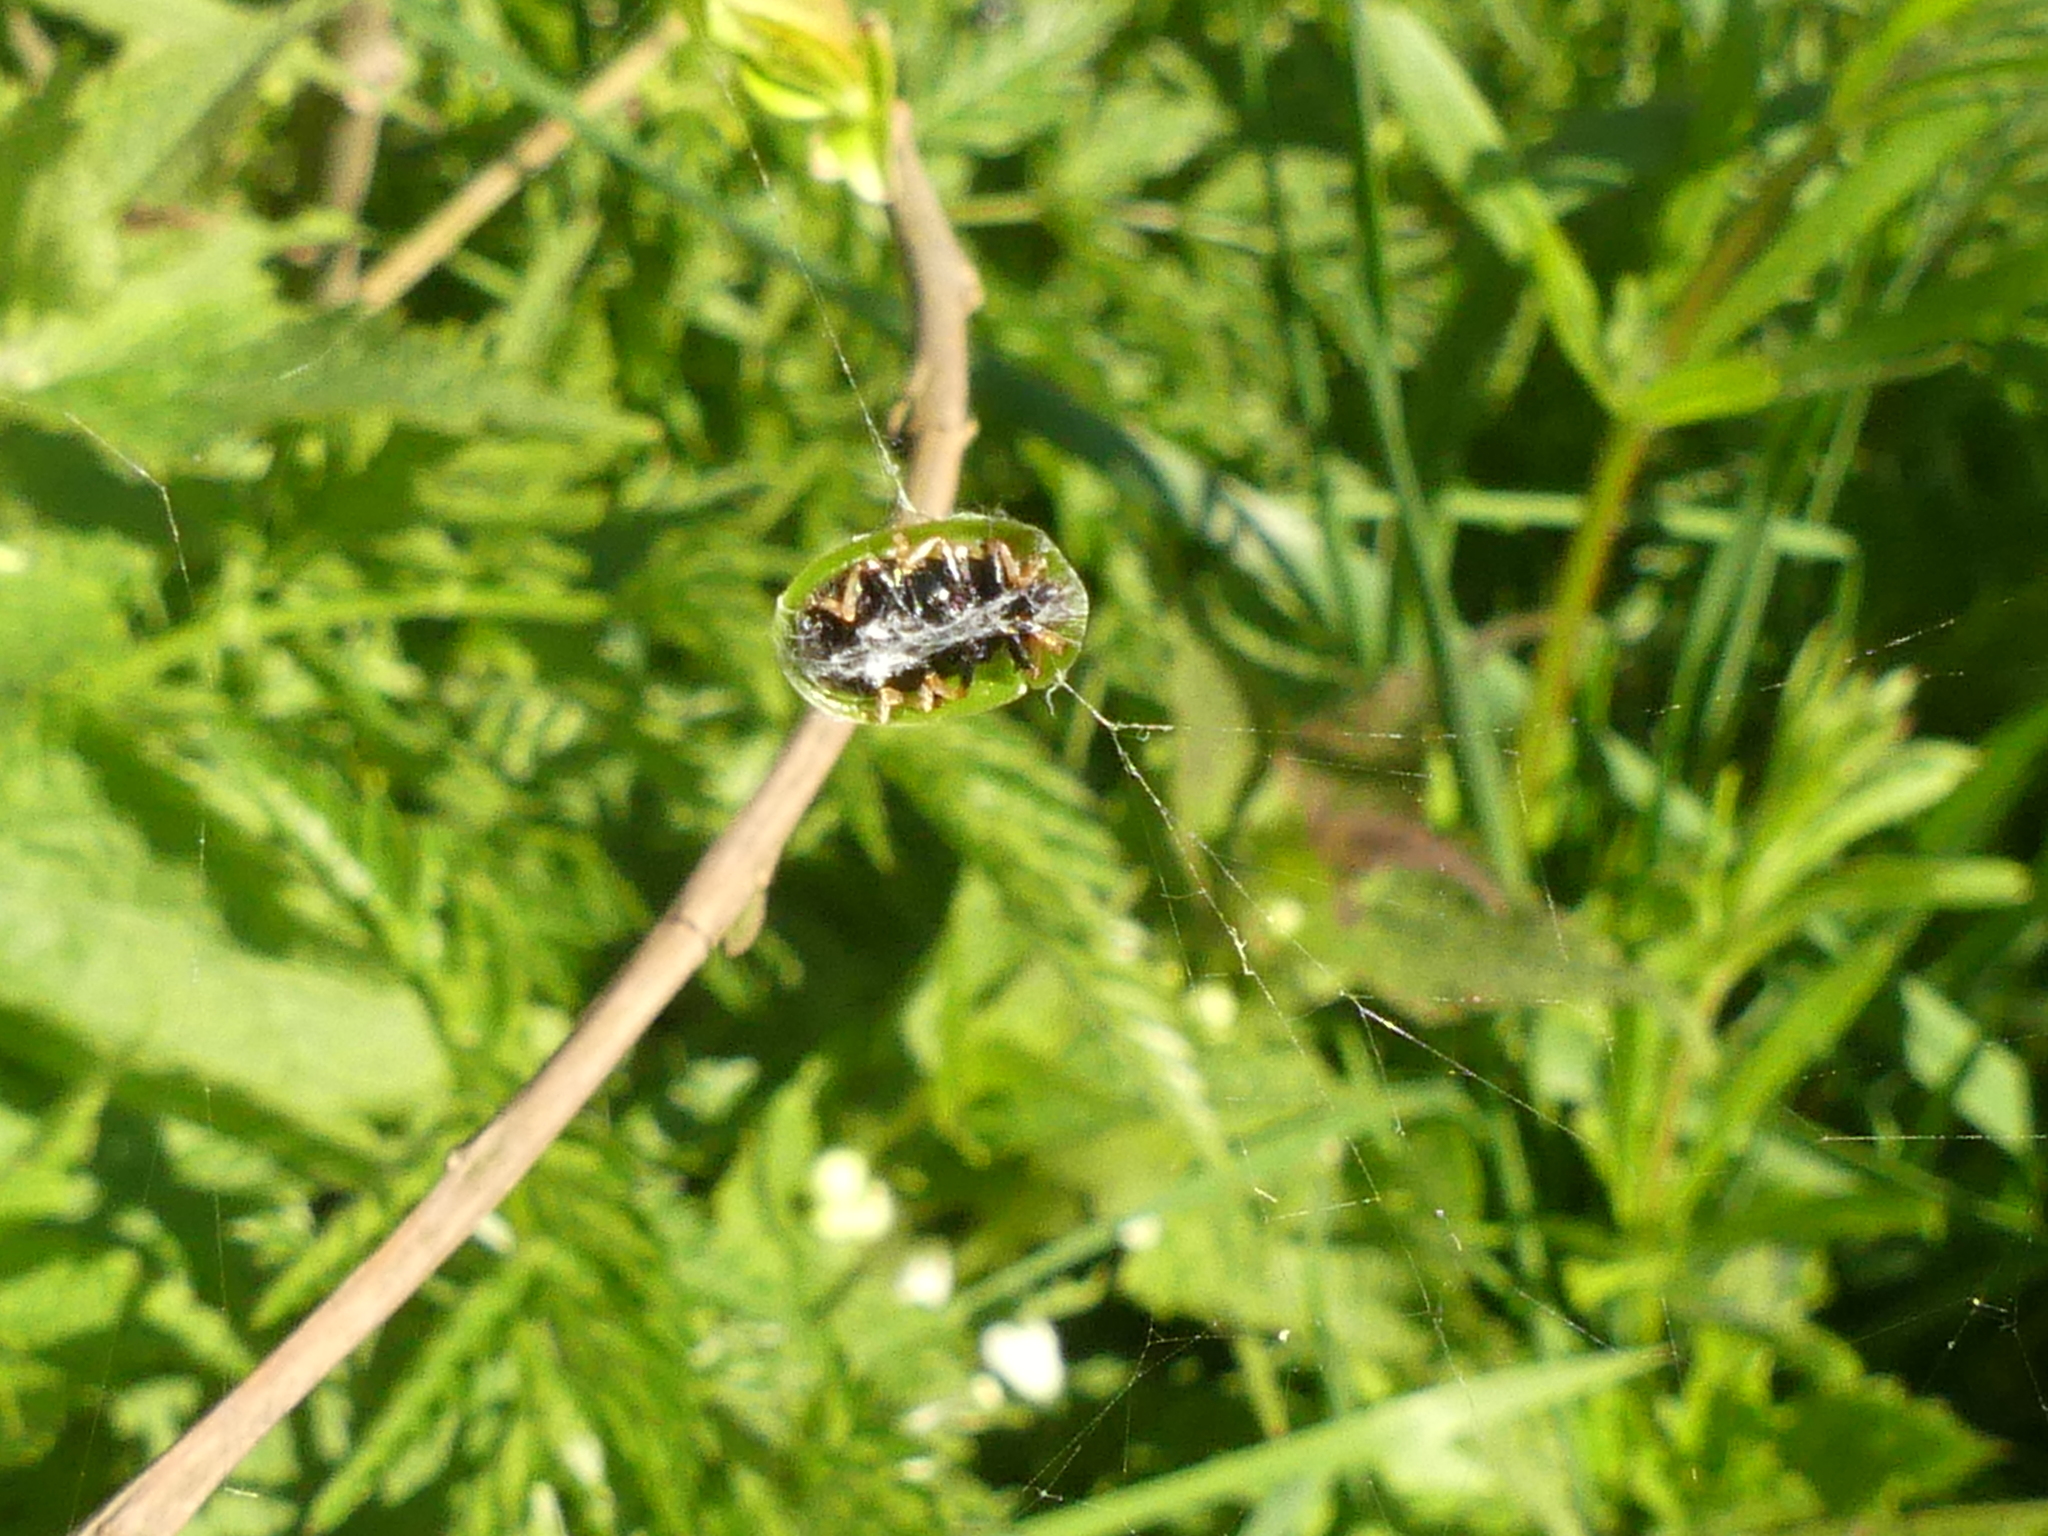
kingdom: Animalia
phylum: Arthropoda
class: Insecta
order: Coleoptera
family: Chrysomelidae
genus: Cassida
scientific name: Cassida rubiginosa
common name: Thistle tortoise beetle
